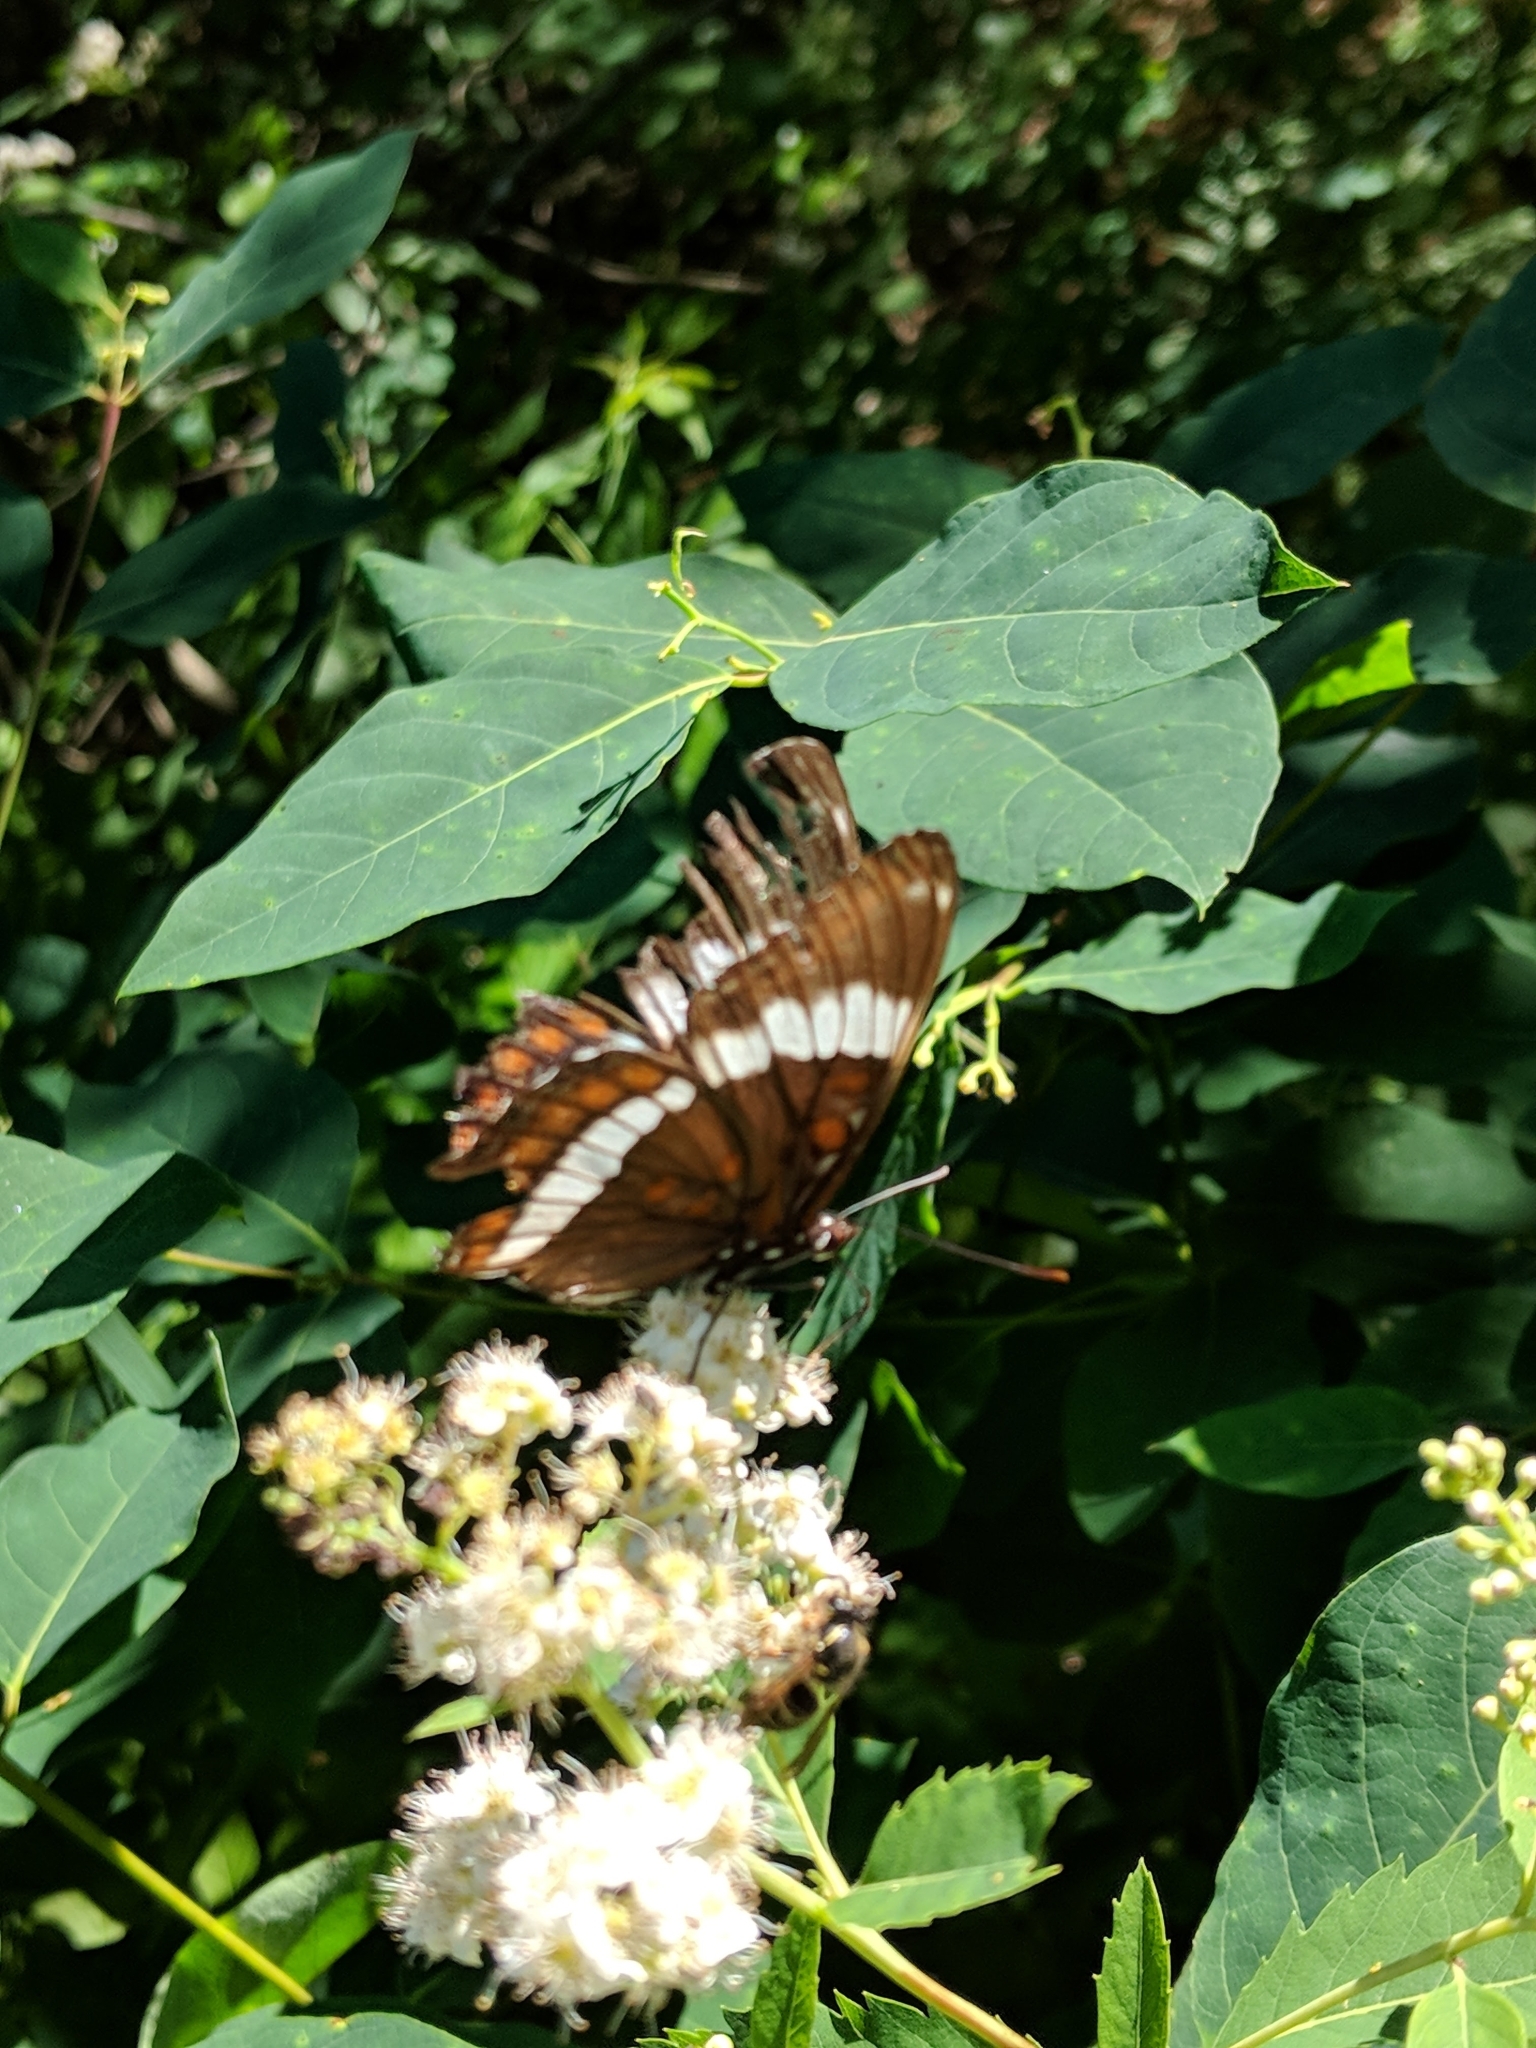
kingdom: Animalia
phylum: Arthropoda
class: Insecta
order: Lepidoptera
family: Nymphalidae
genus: Limenitis
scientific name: Limenitis arthemis
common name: Red-spotted admiral
